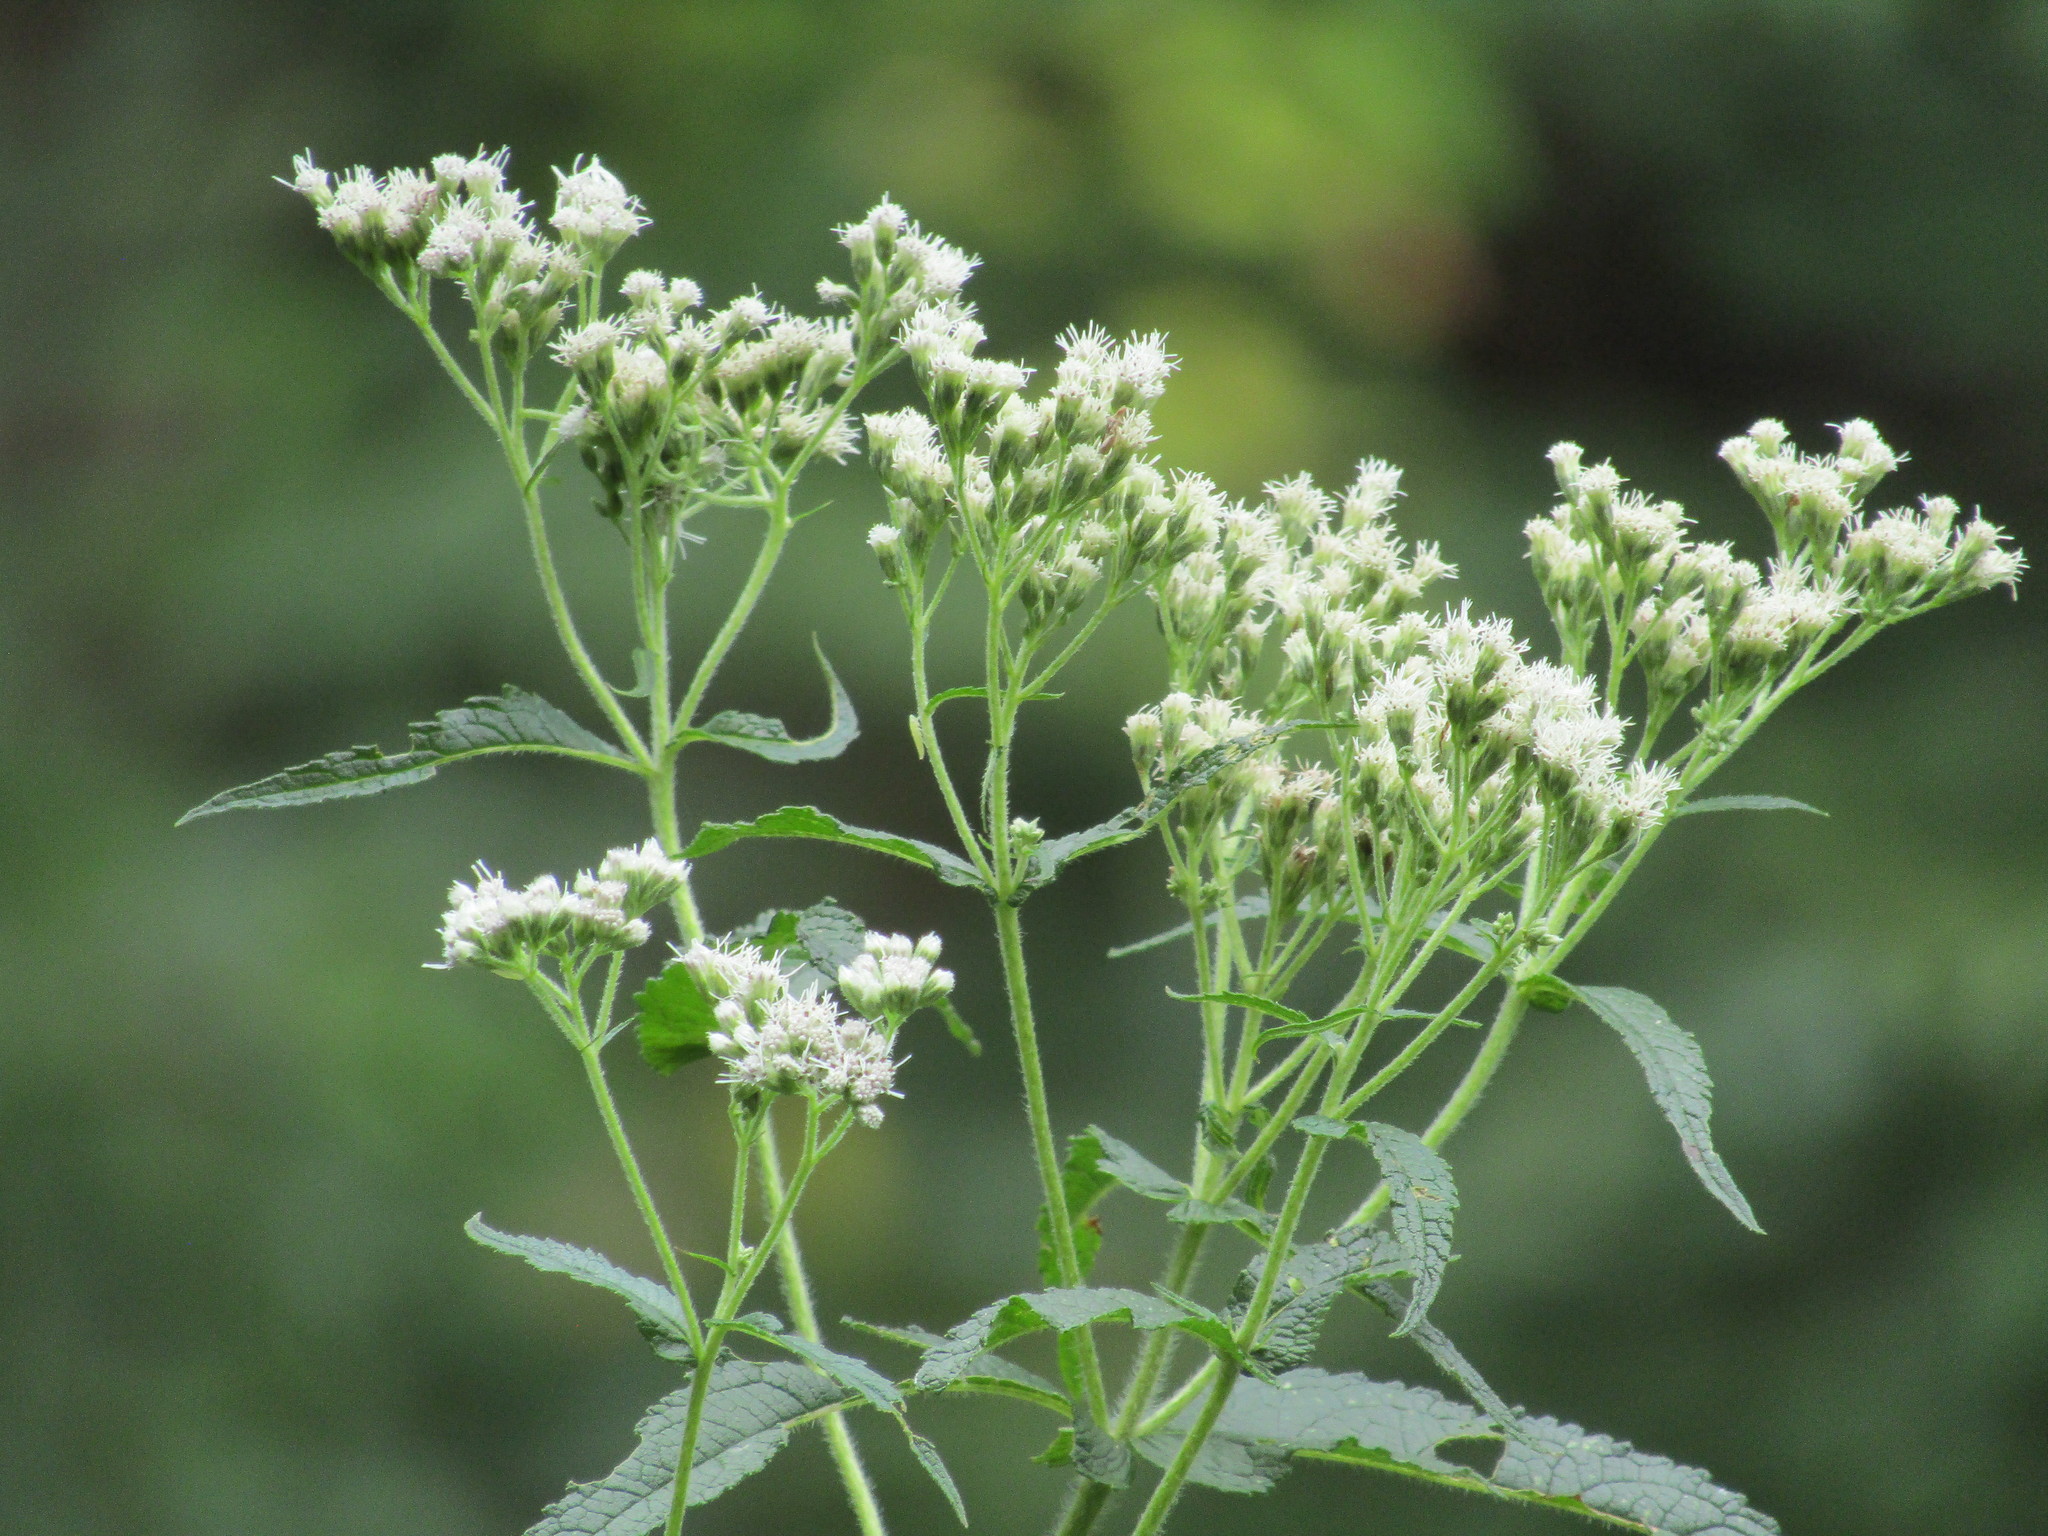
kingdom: Plantae
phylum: Tracheophyta
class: Magnoliopsida
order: Asterales
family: Asteraceae
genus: Eupatorium
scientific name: Eupatorium perfoliatum
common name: Boneset
